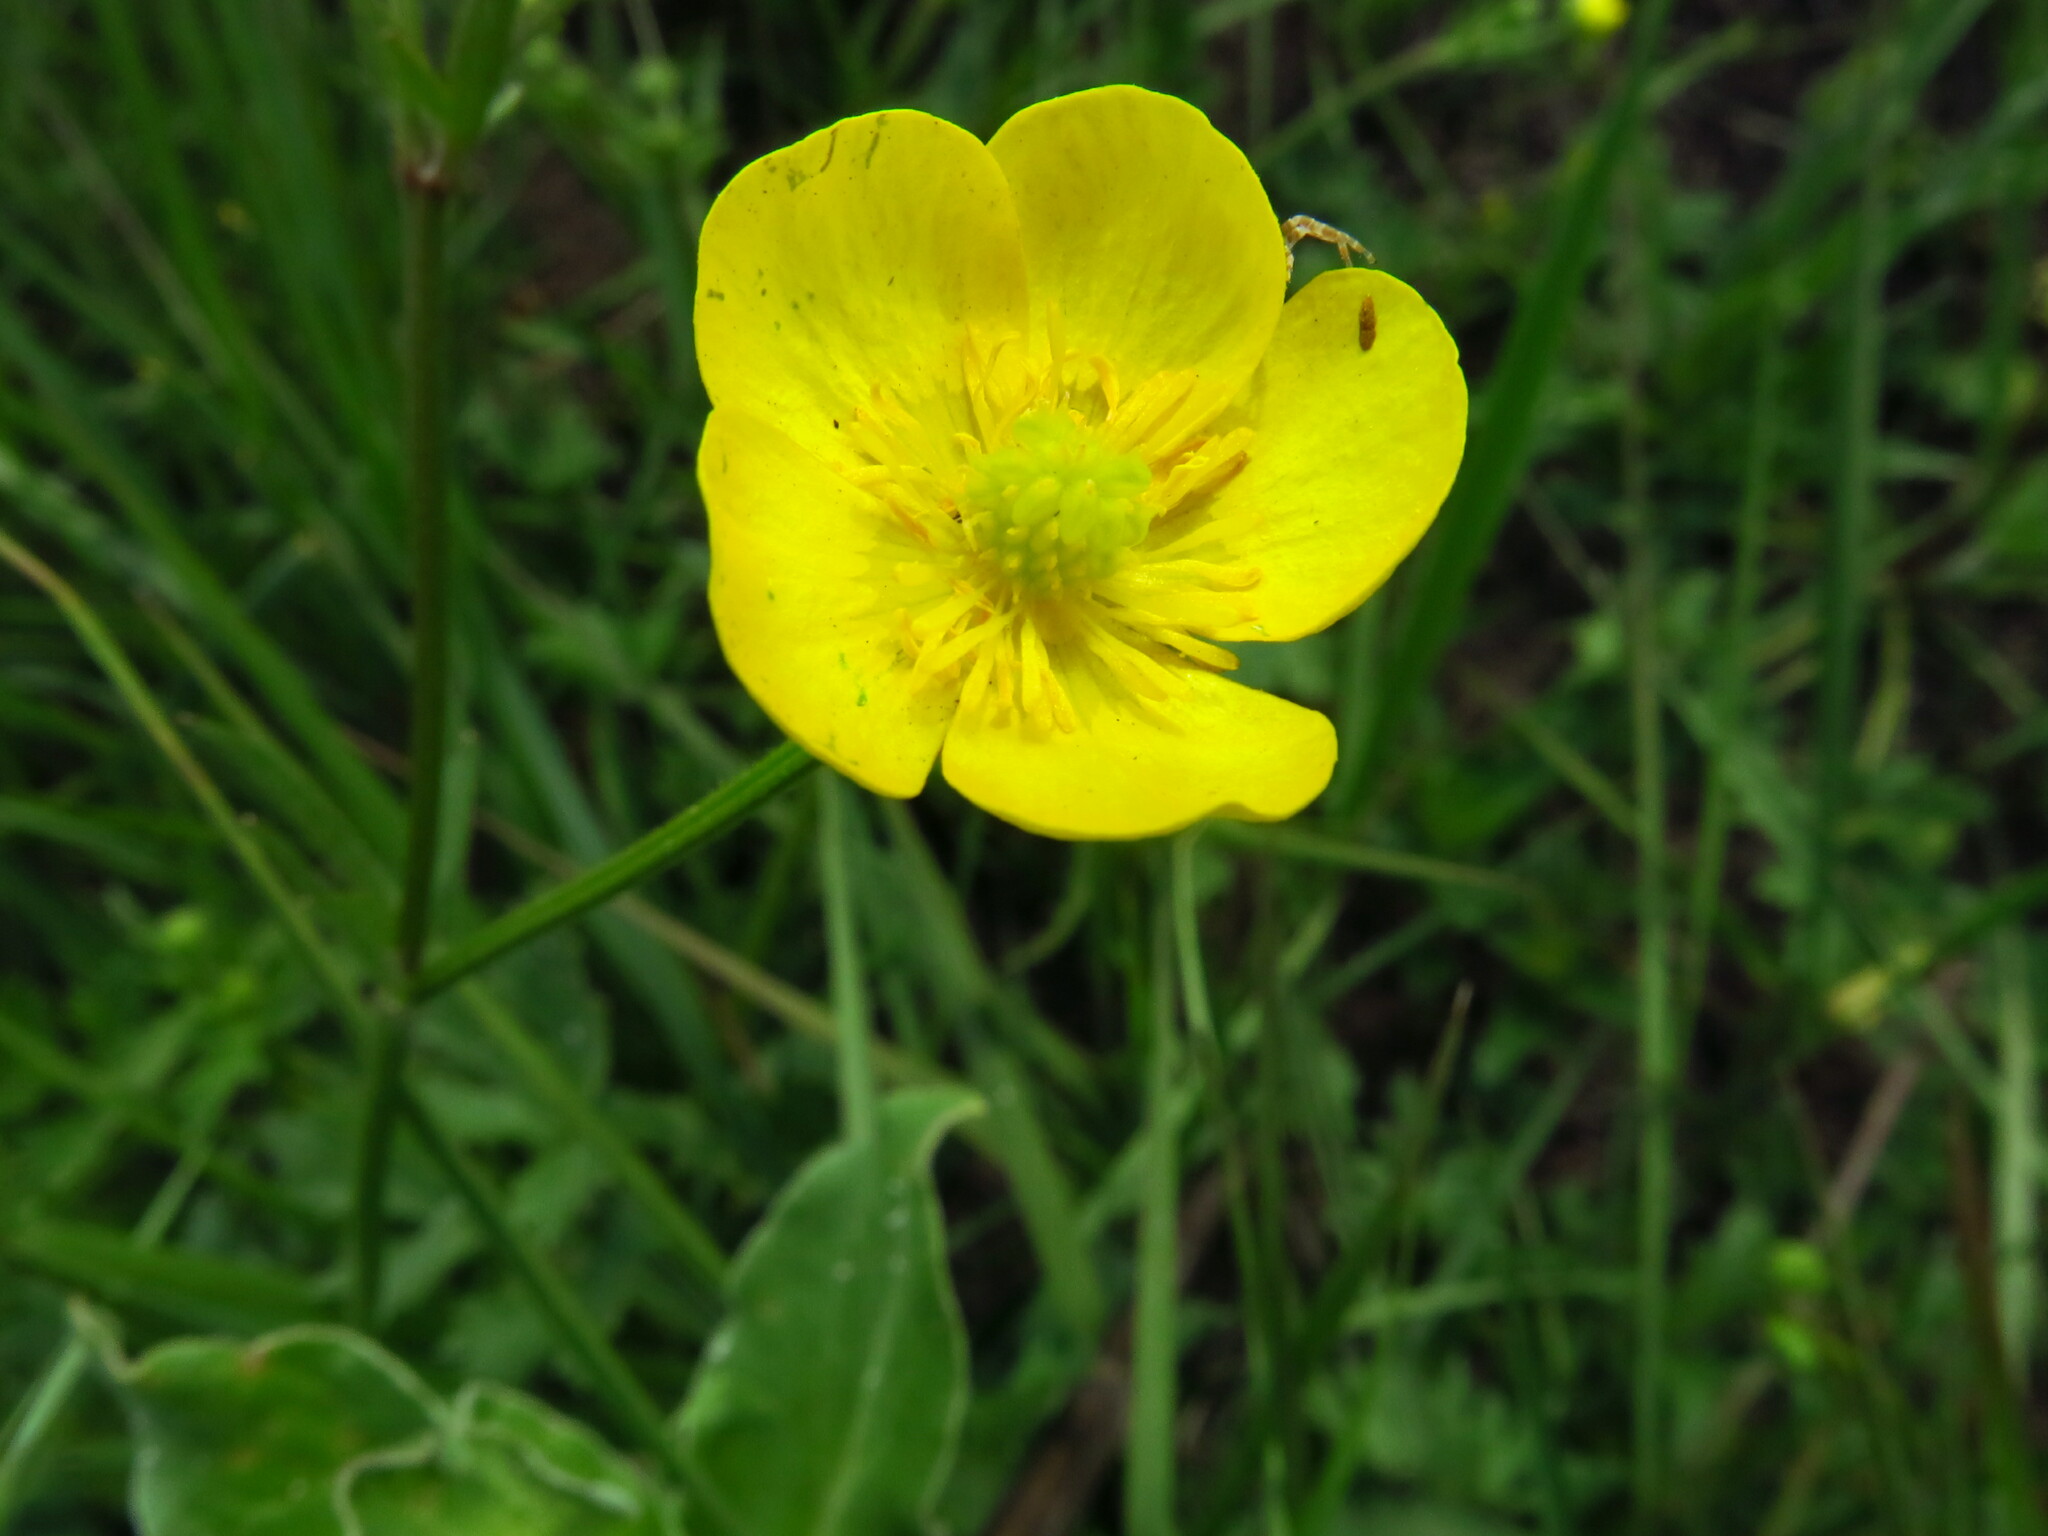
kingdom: Plantae
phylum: Tracheophyta
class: Magnoliopsida
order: Ranunculales
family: Ranunculaceae
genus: Ranunculus
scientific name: Ranunculus multifidus
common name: Wild buttercup
